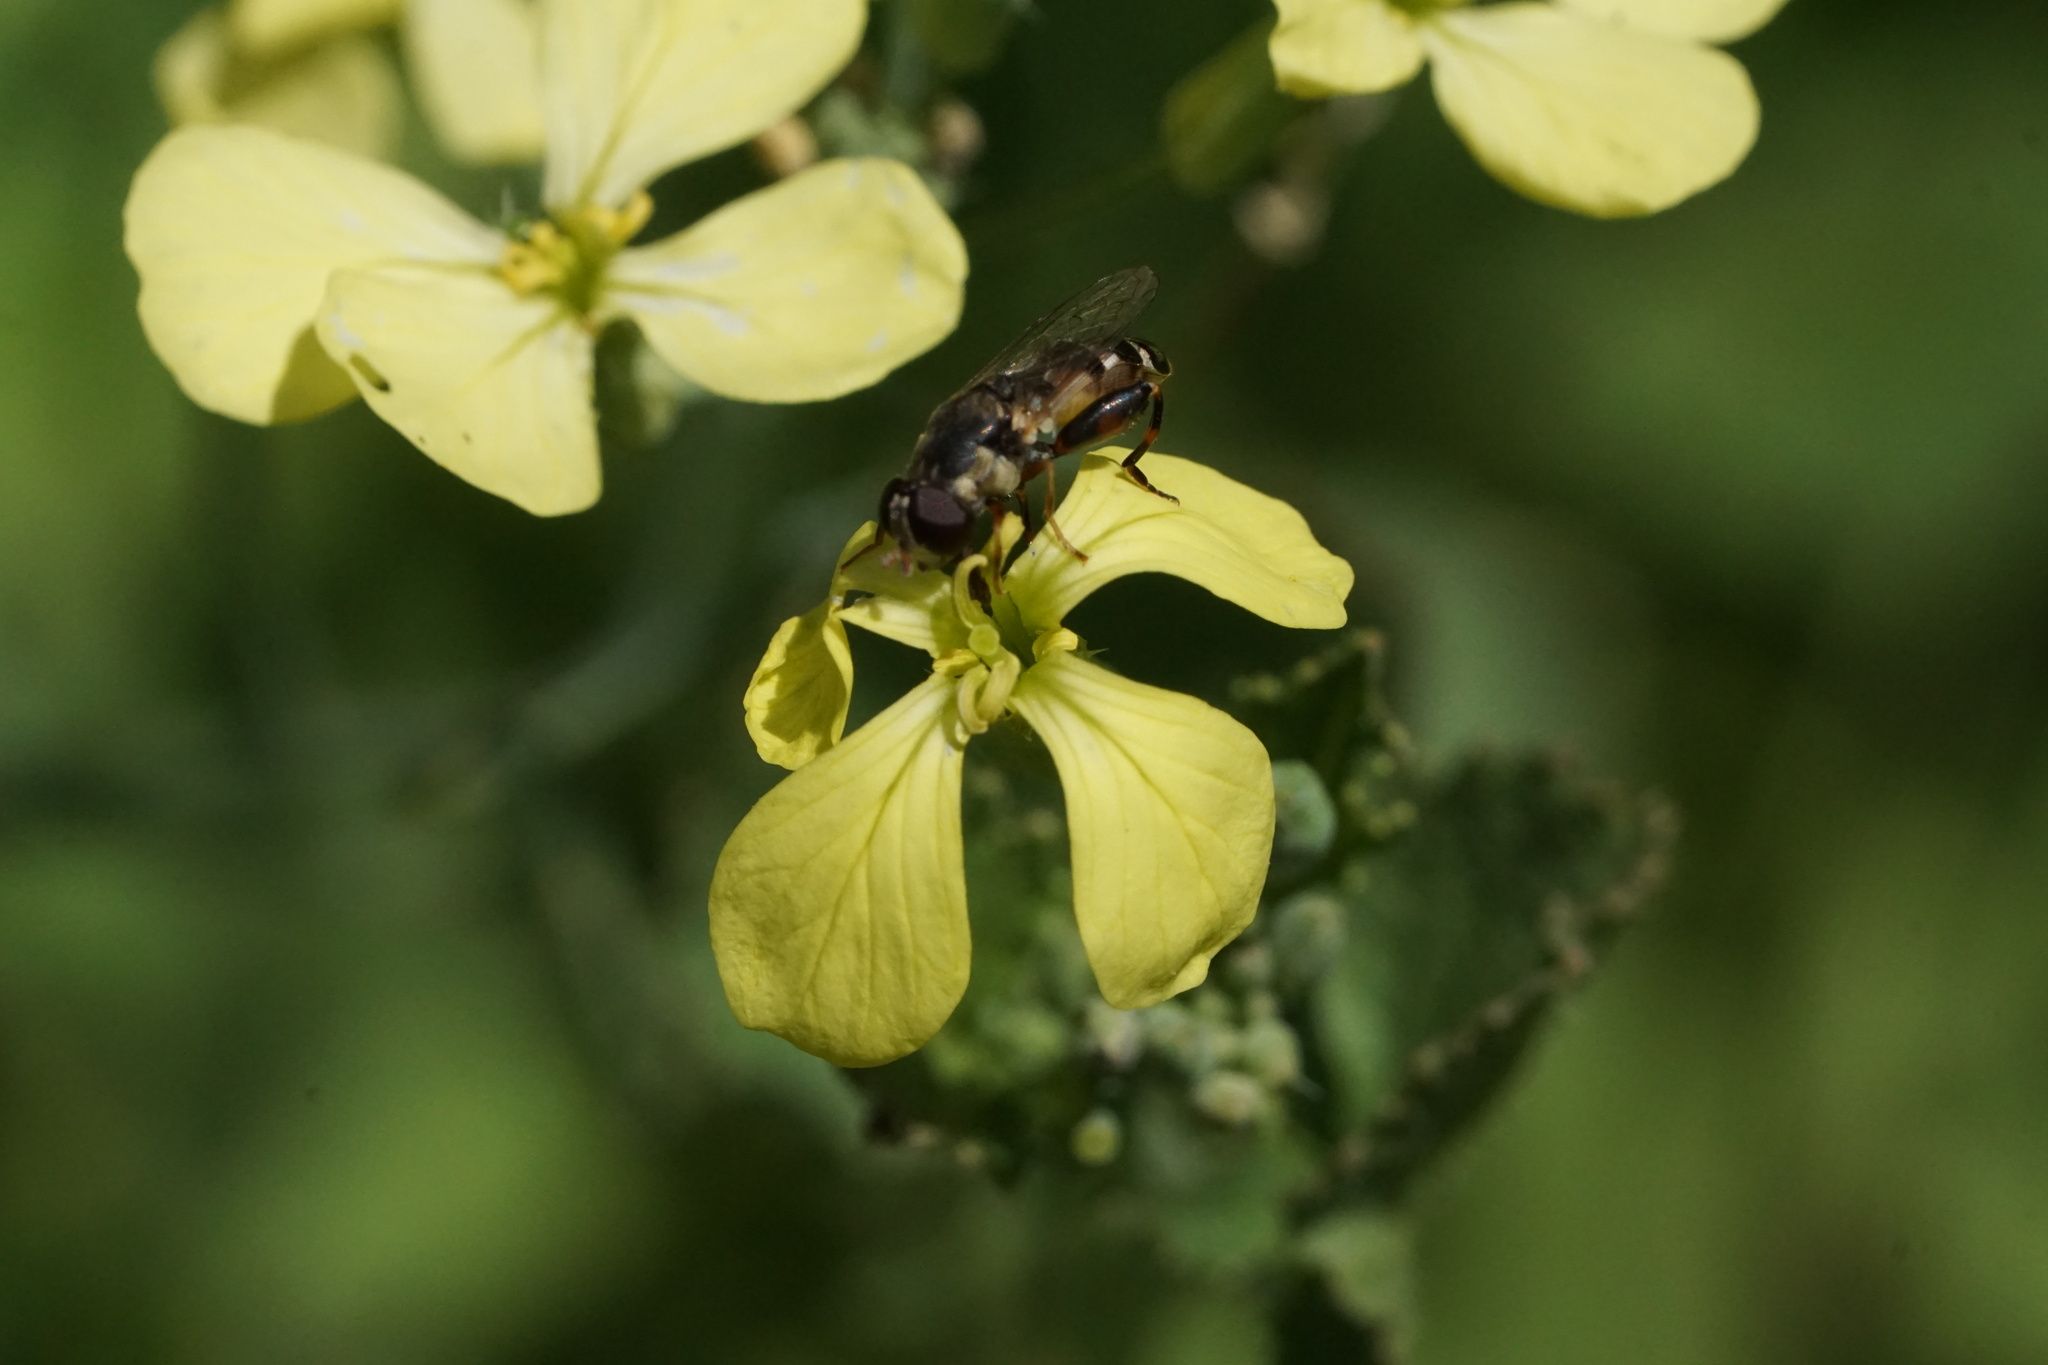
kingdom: Animalia
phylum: Arthropoda
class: Insecta
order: Diptera
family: Syrphidae
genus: Syritta
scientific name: Syritta pipiens
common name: Hover fly
